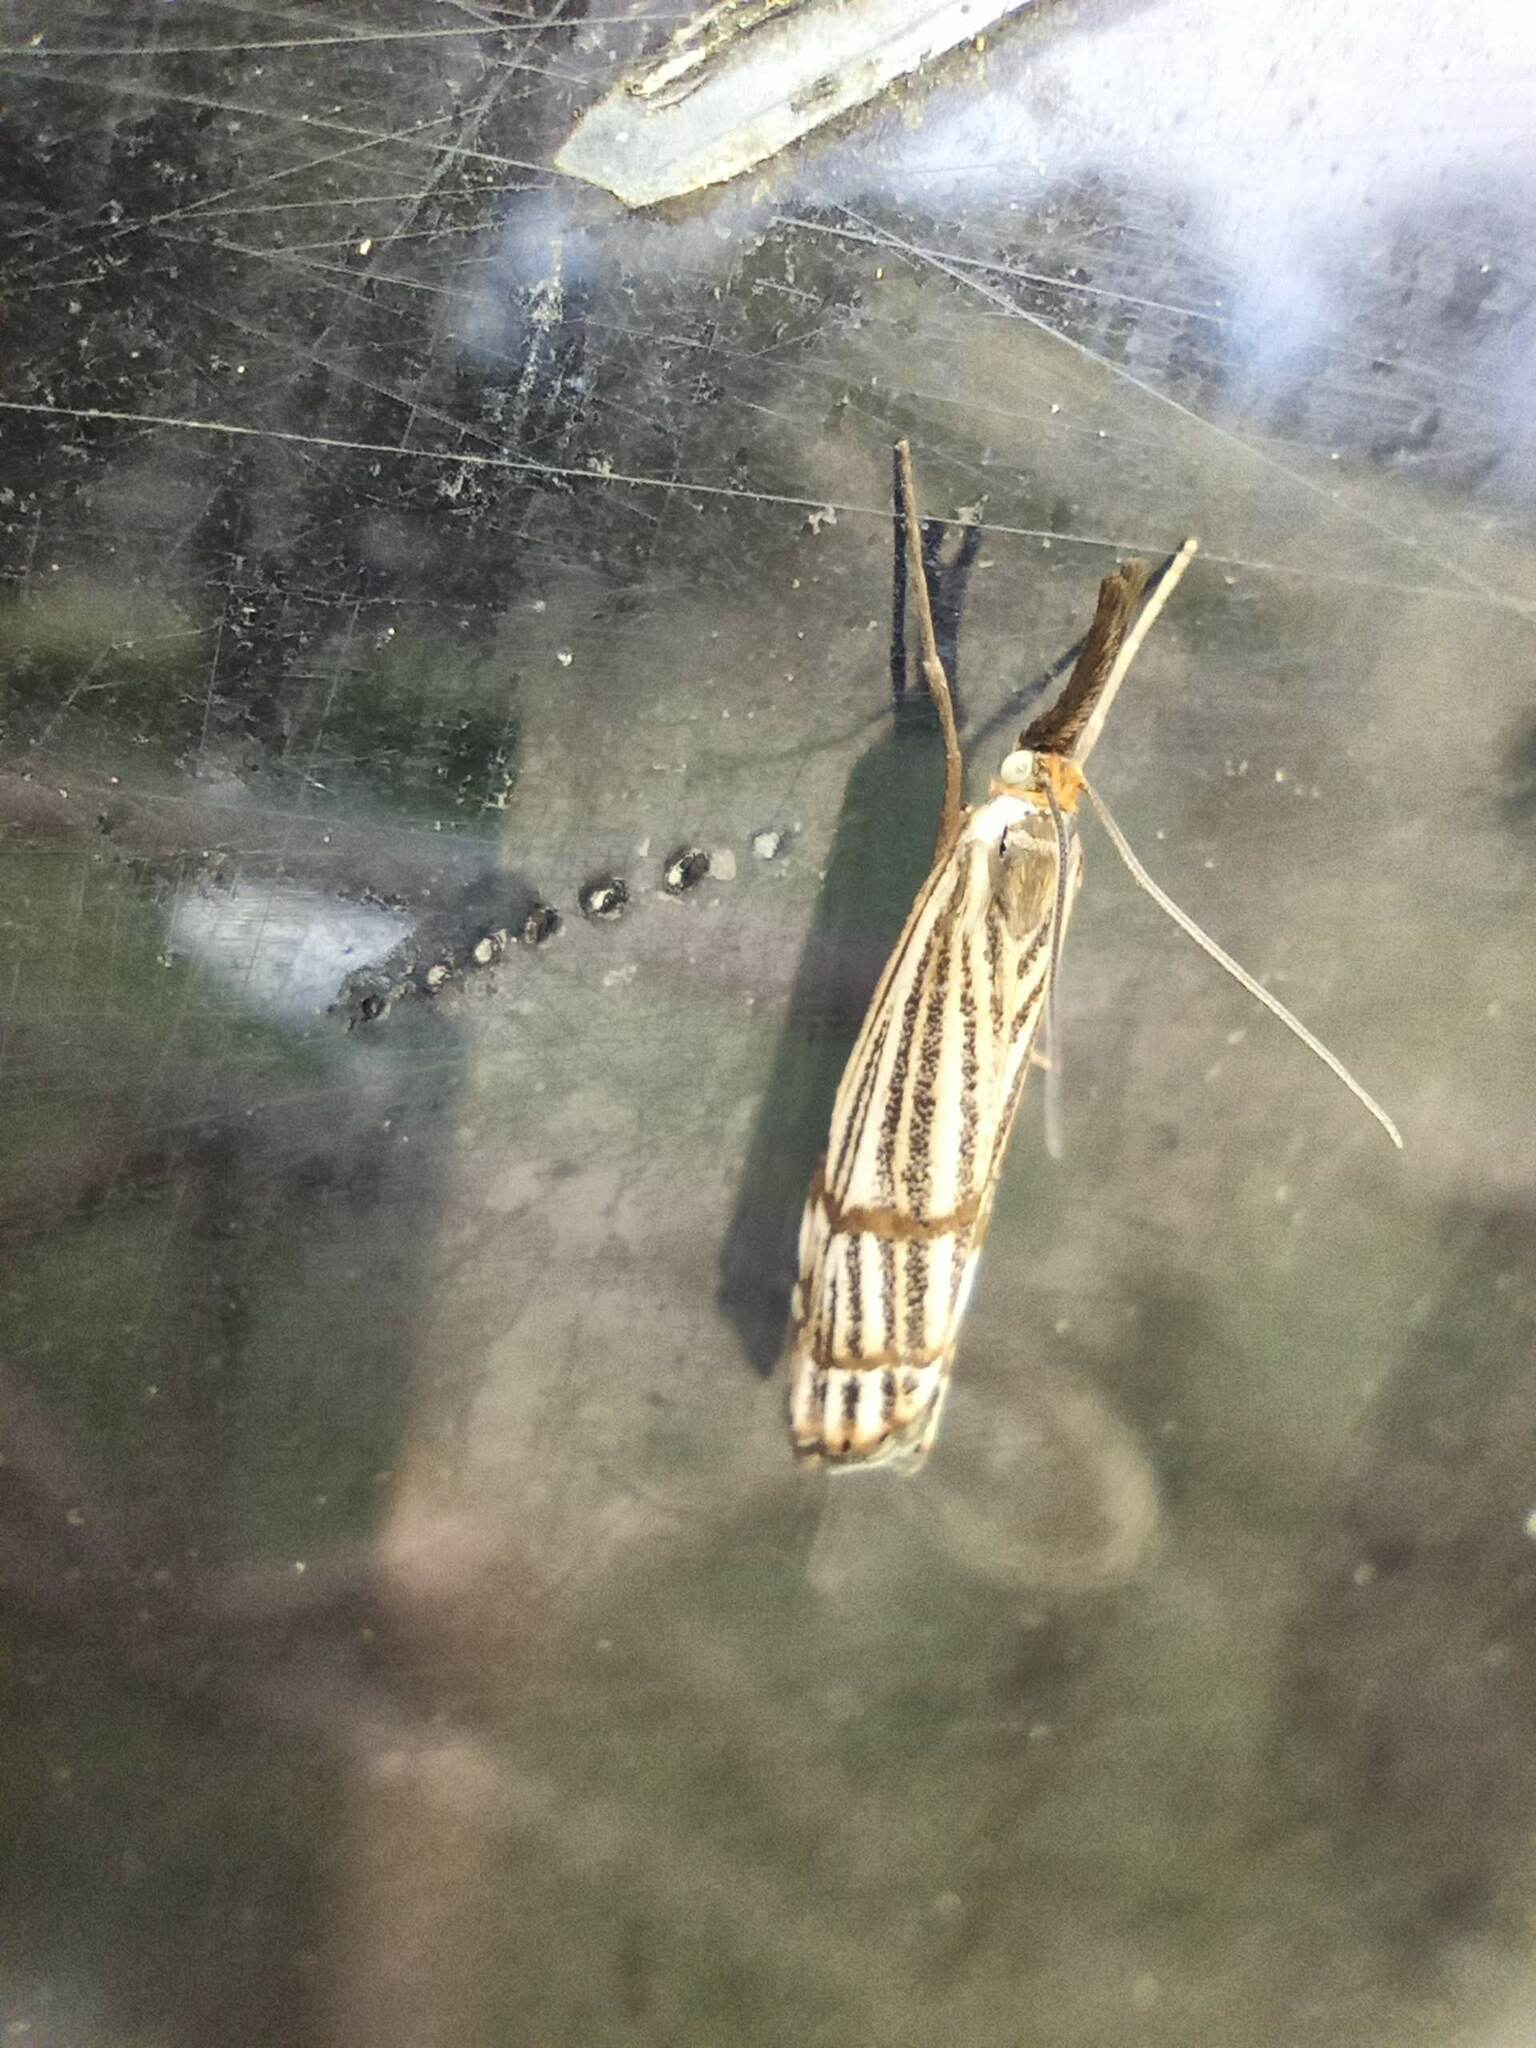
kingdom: Animalia
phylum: Arthropoda
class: Insecta
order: Lepidoptera
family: Crambidae
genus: Chrysocrambus
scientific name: Chrysocrambus linetella
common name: Orange-bar grass-veneer
